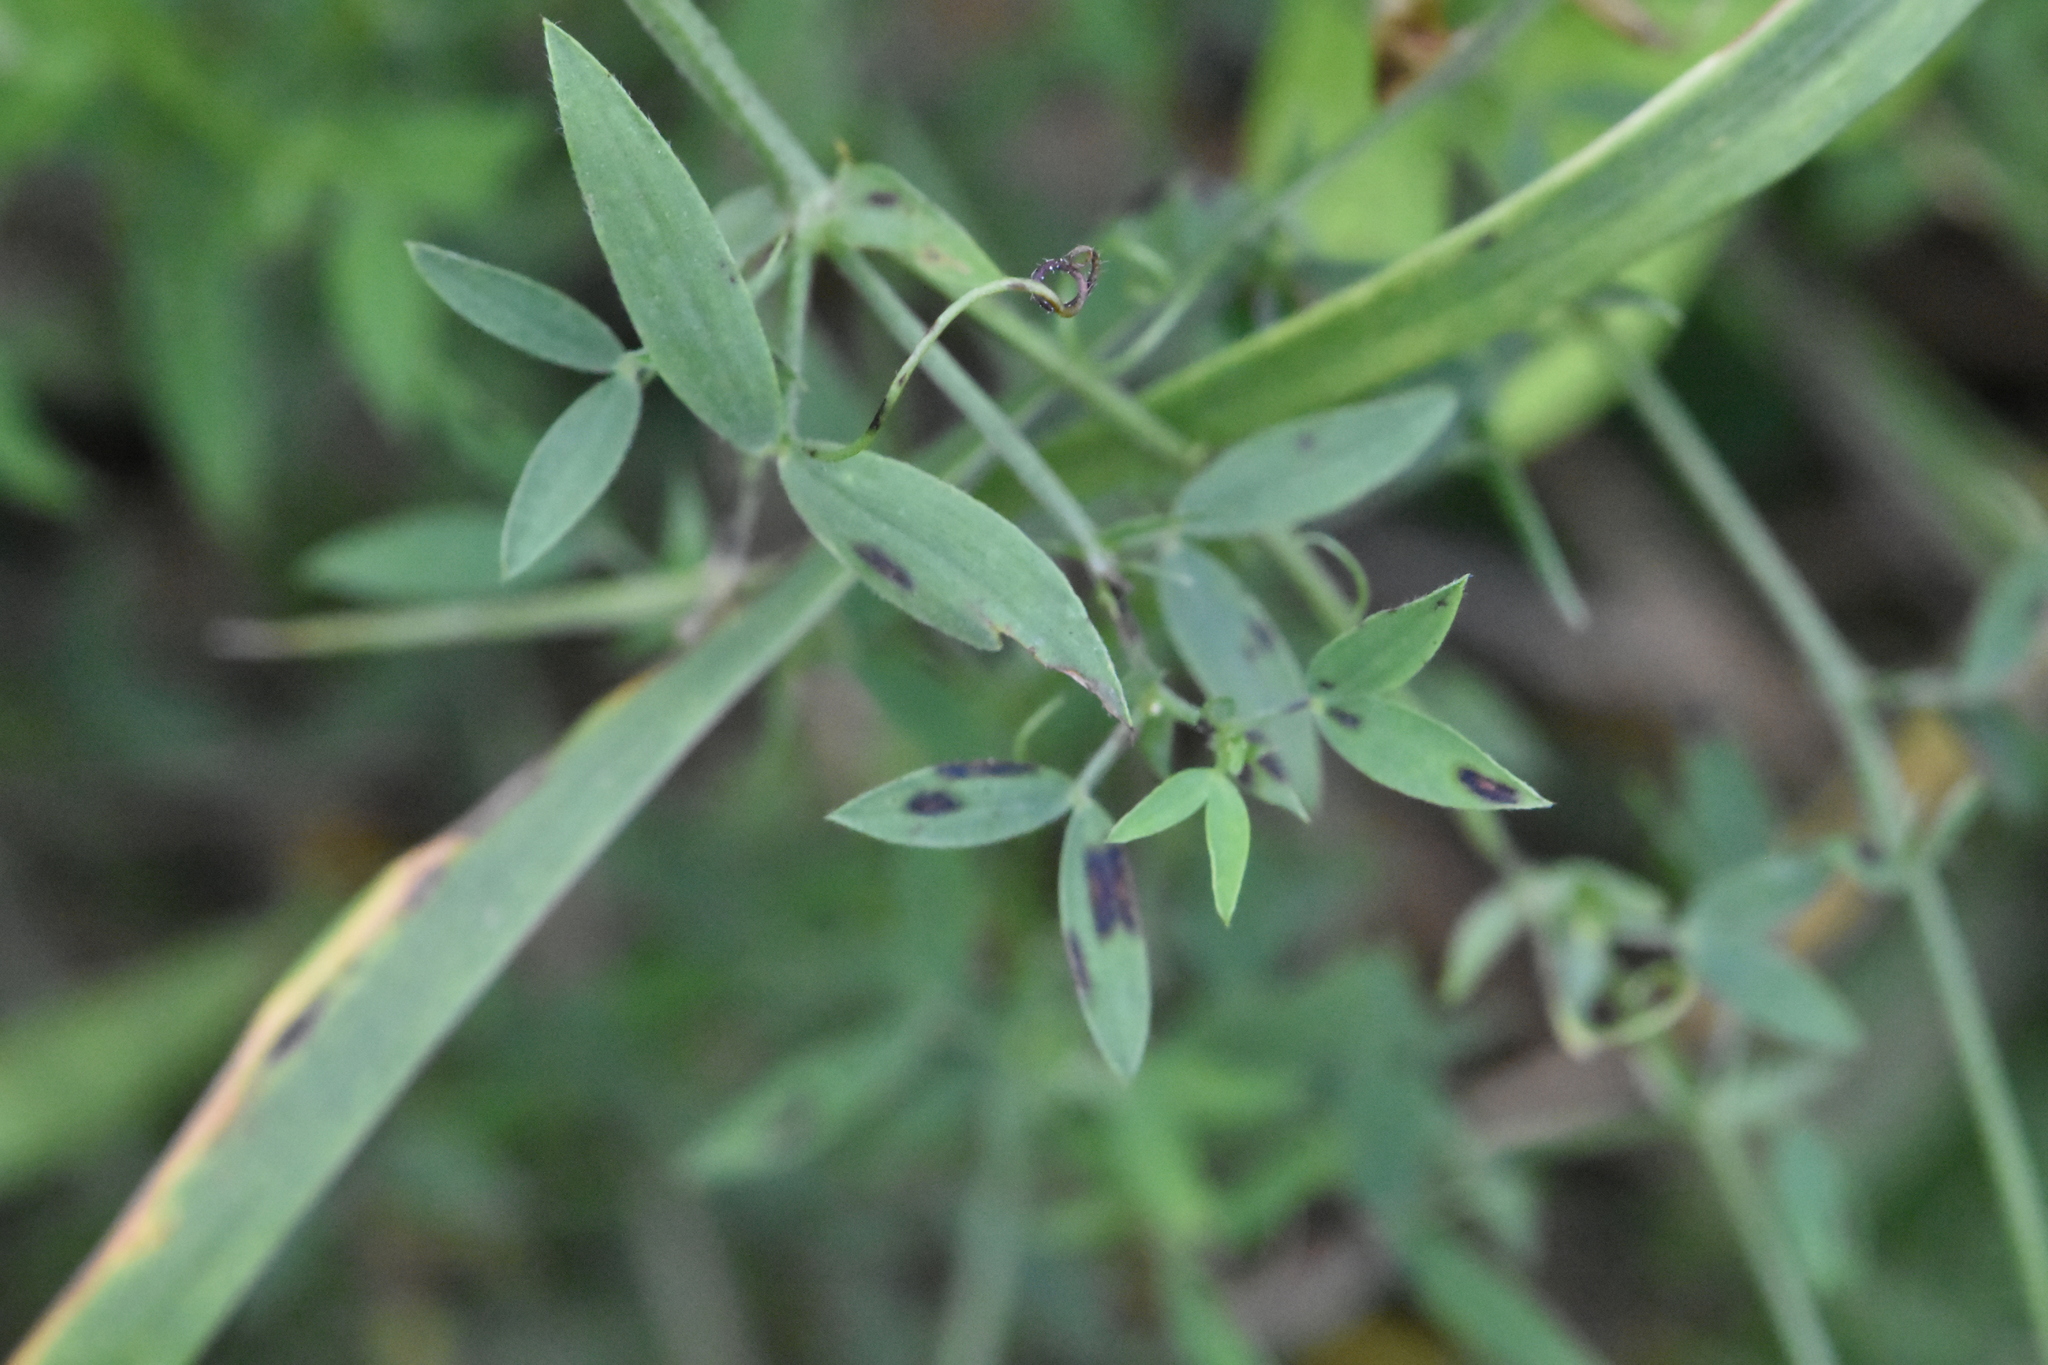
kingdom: Plantae
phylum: Tracheophyta
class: Magnoliopsida
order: Fabales
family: Fabaceae
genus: Lathyrus
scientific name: Lathyrus pratensis
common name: Meadow vetchling
